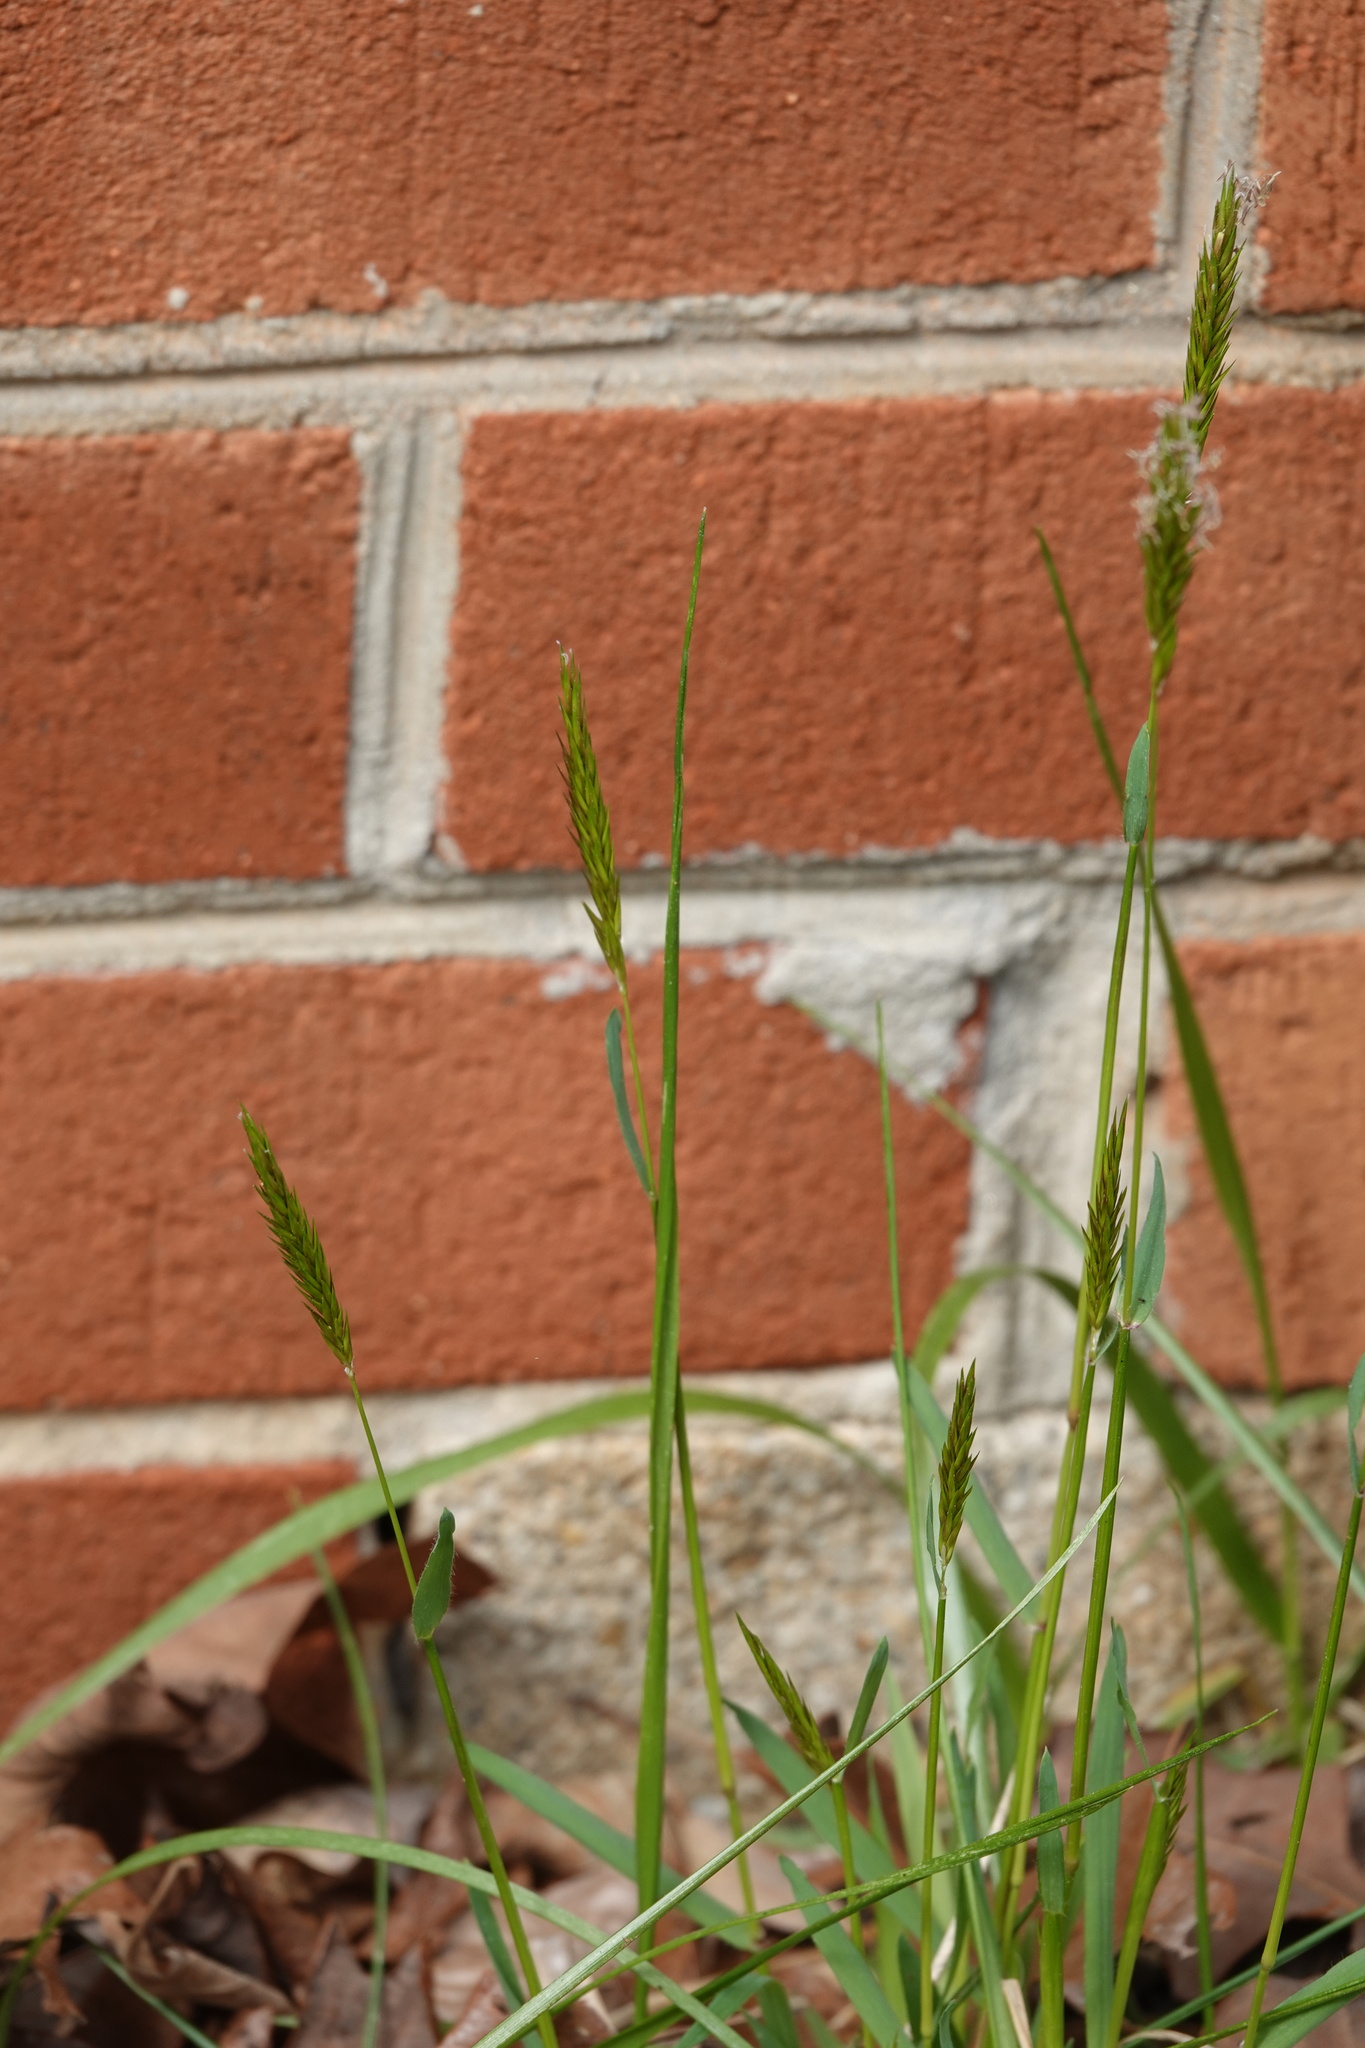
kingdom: Plantae
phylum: Tracheophyta
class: Liliopsida
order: Poales
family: Poaceae
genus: Anthoxanthum
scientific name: Anthoxanthum odoratum
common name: Sweet vernalgrass
